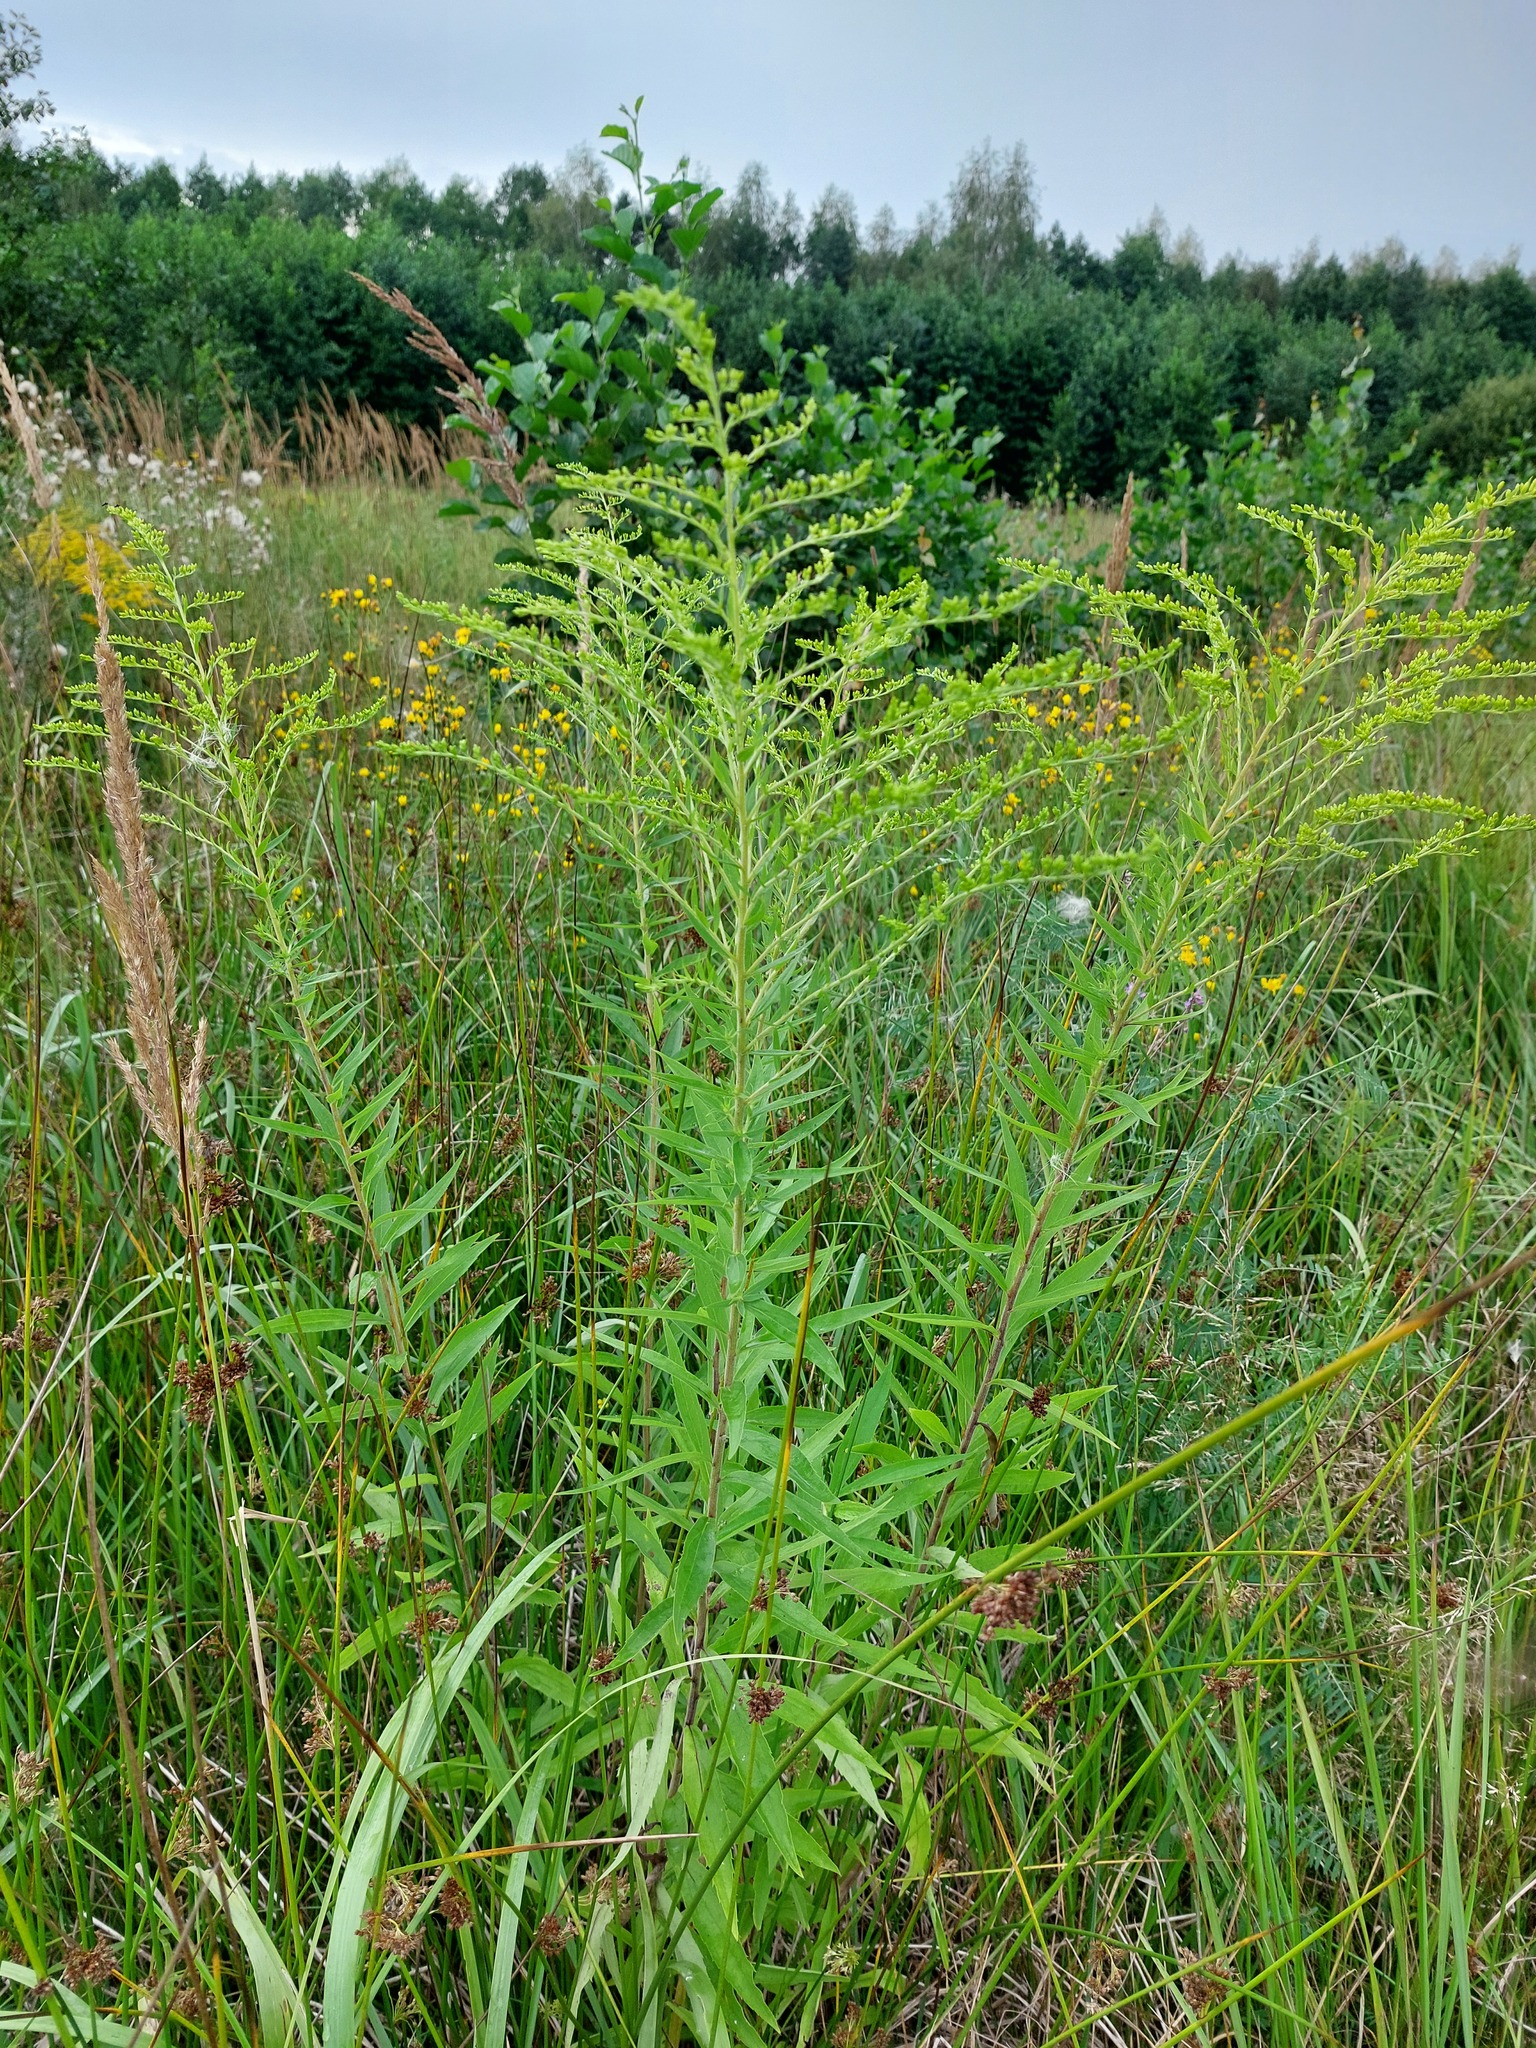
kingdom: Plantae
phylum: Tracheophyta
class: Magnoliopsida
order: Asterales
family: Asteraceae
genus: Solidago
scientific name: Solidago canadensis
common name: Canada goldenrod
